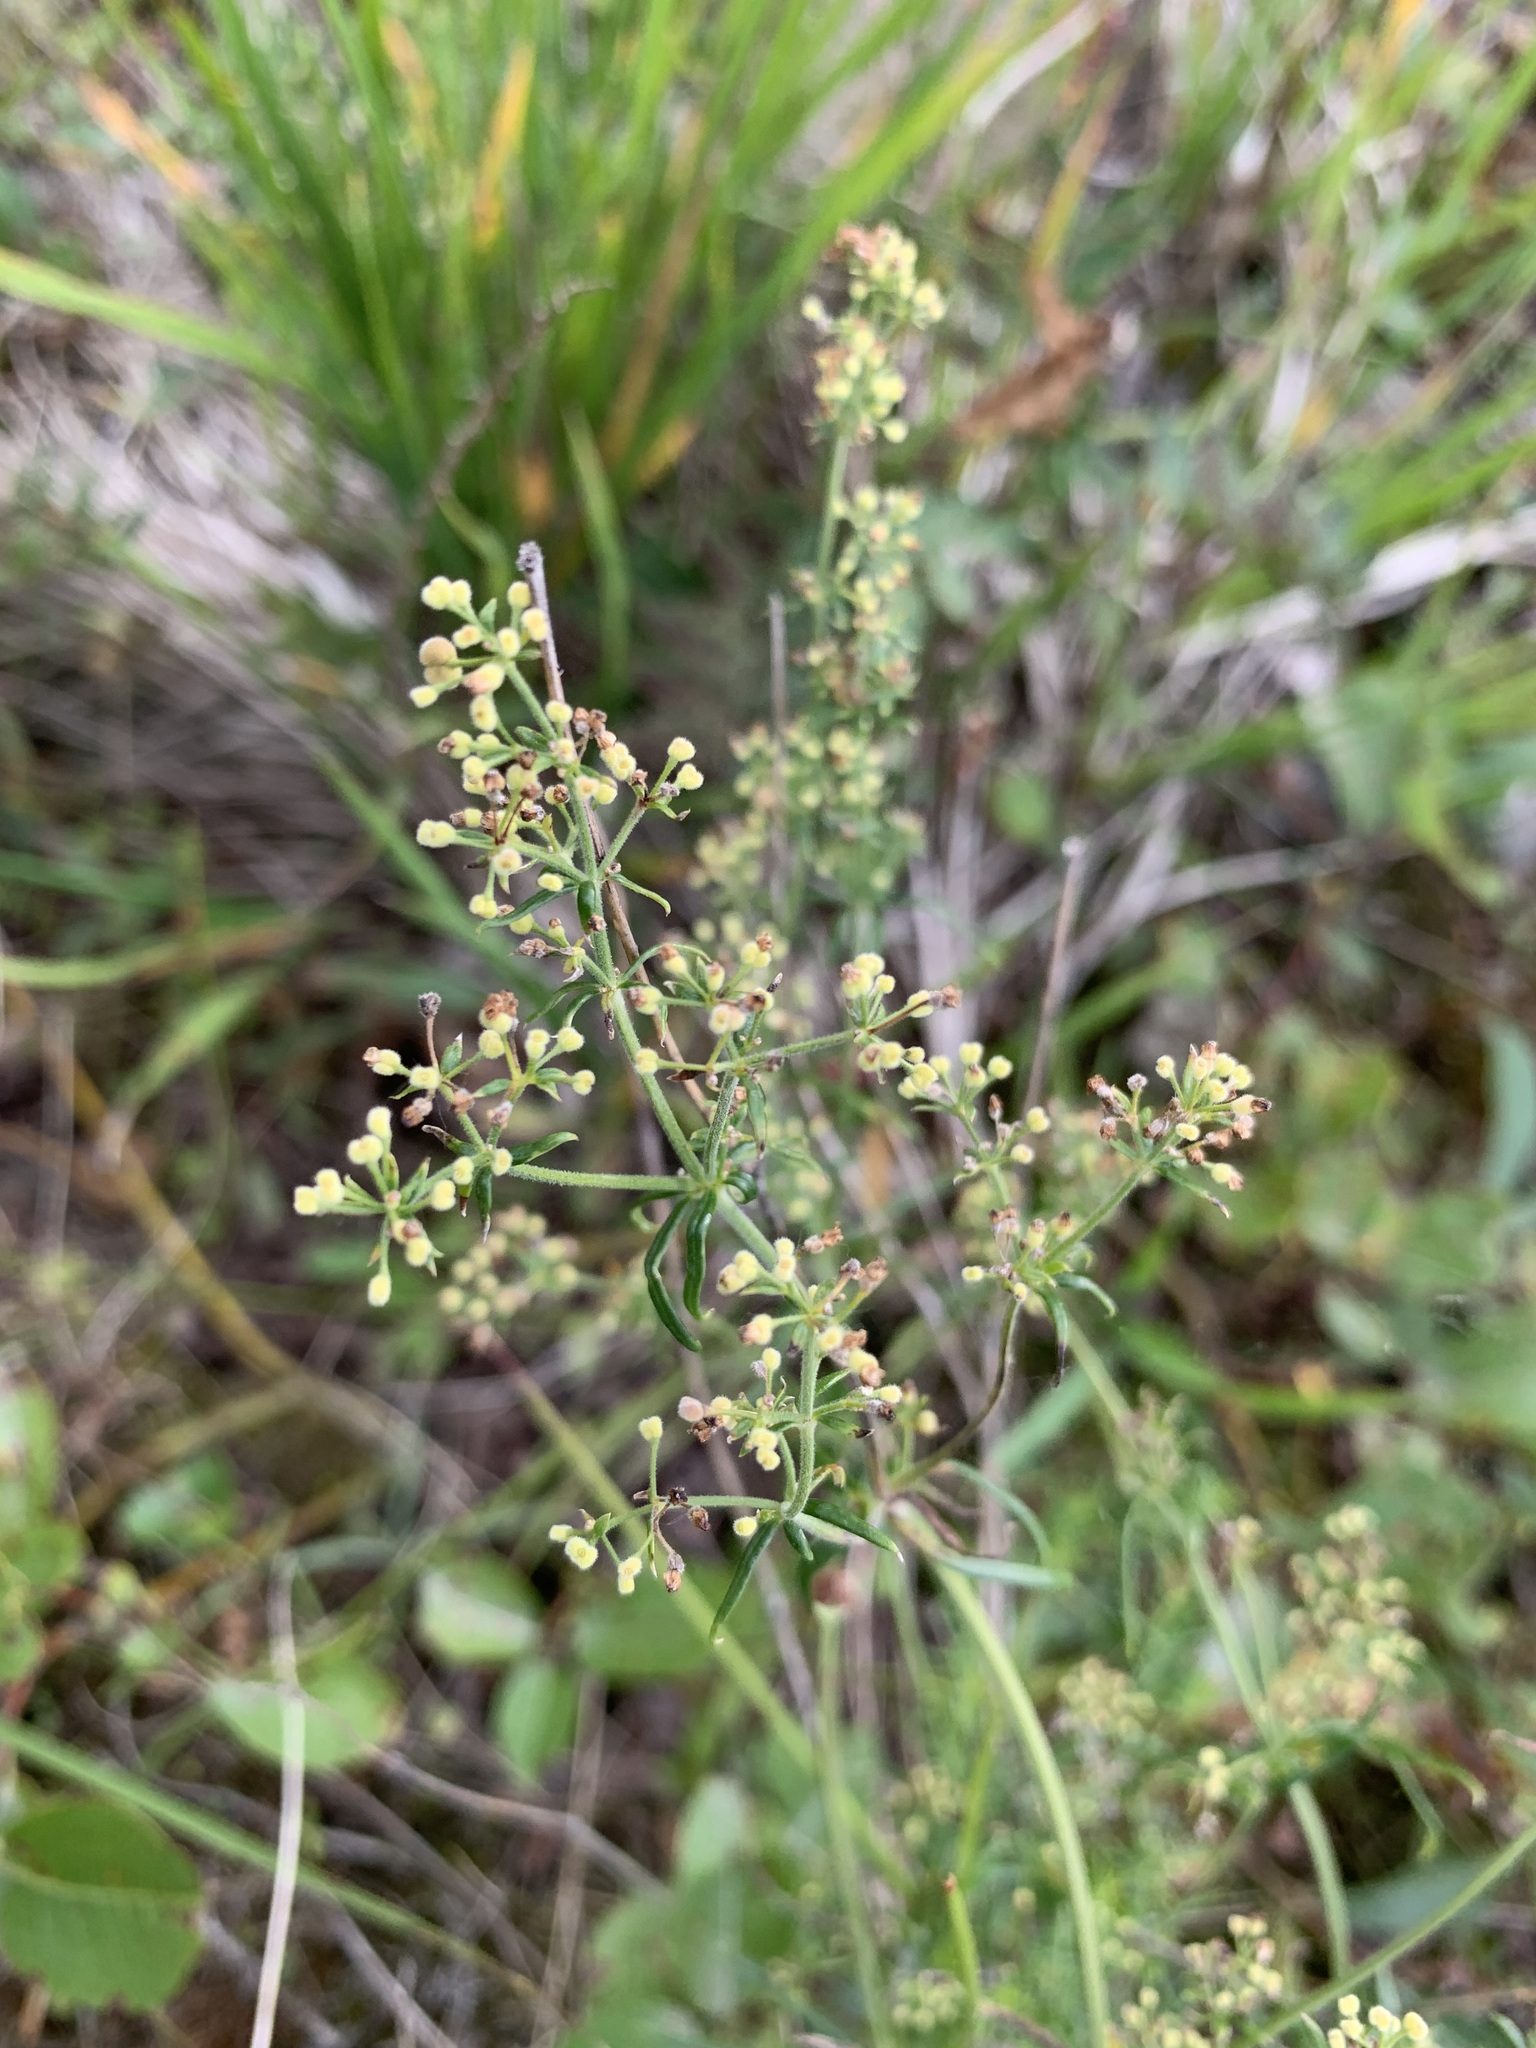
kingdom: Plantae
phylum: Tracheophyta
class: Magnoliopsida
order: Gentianales
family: Rubiaceae
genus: Galium
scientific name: Galium verum
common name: Lady's bedstraw
